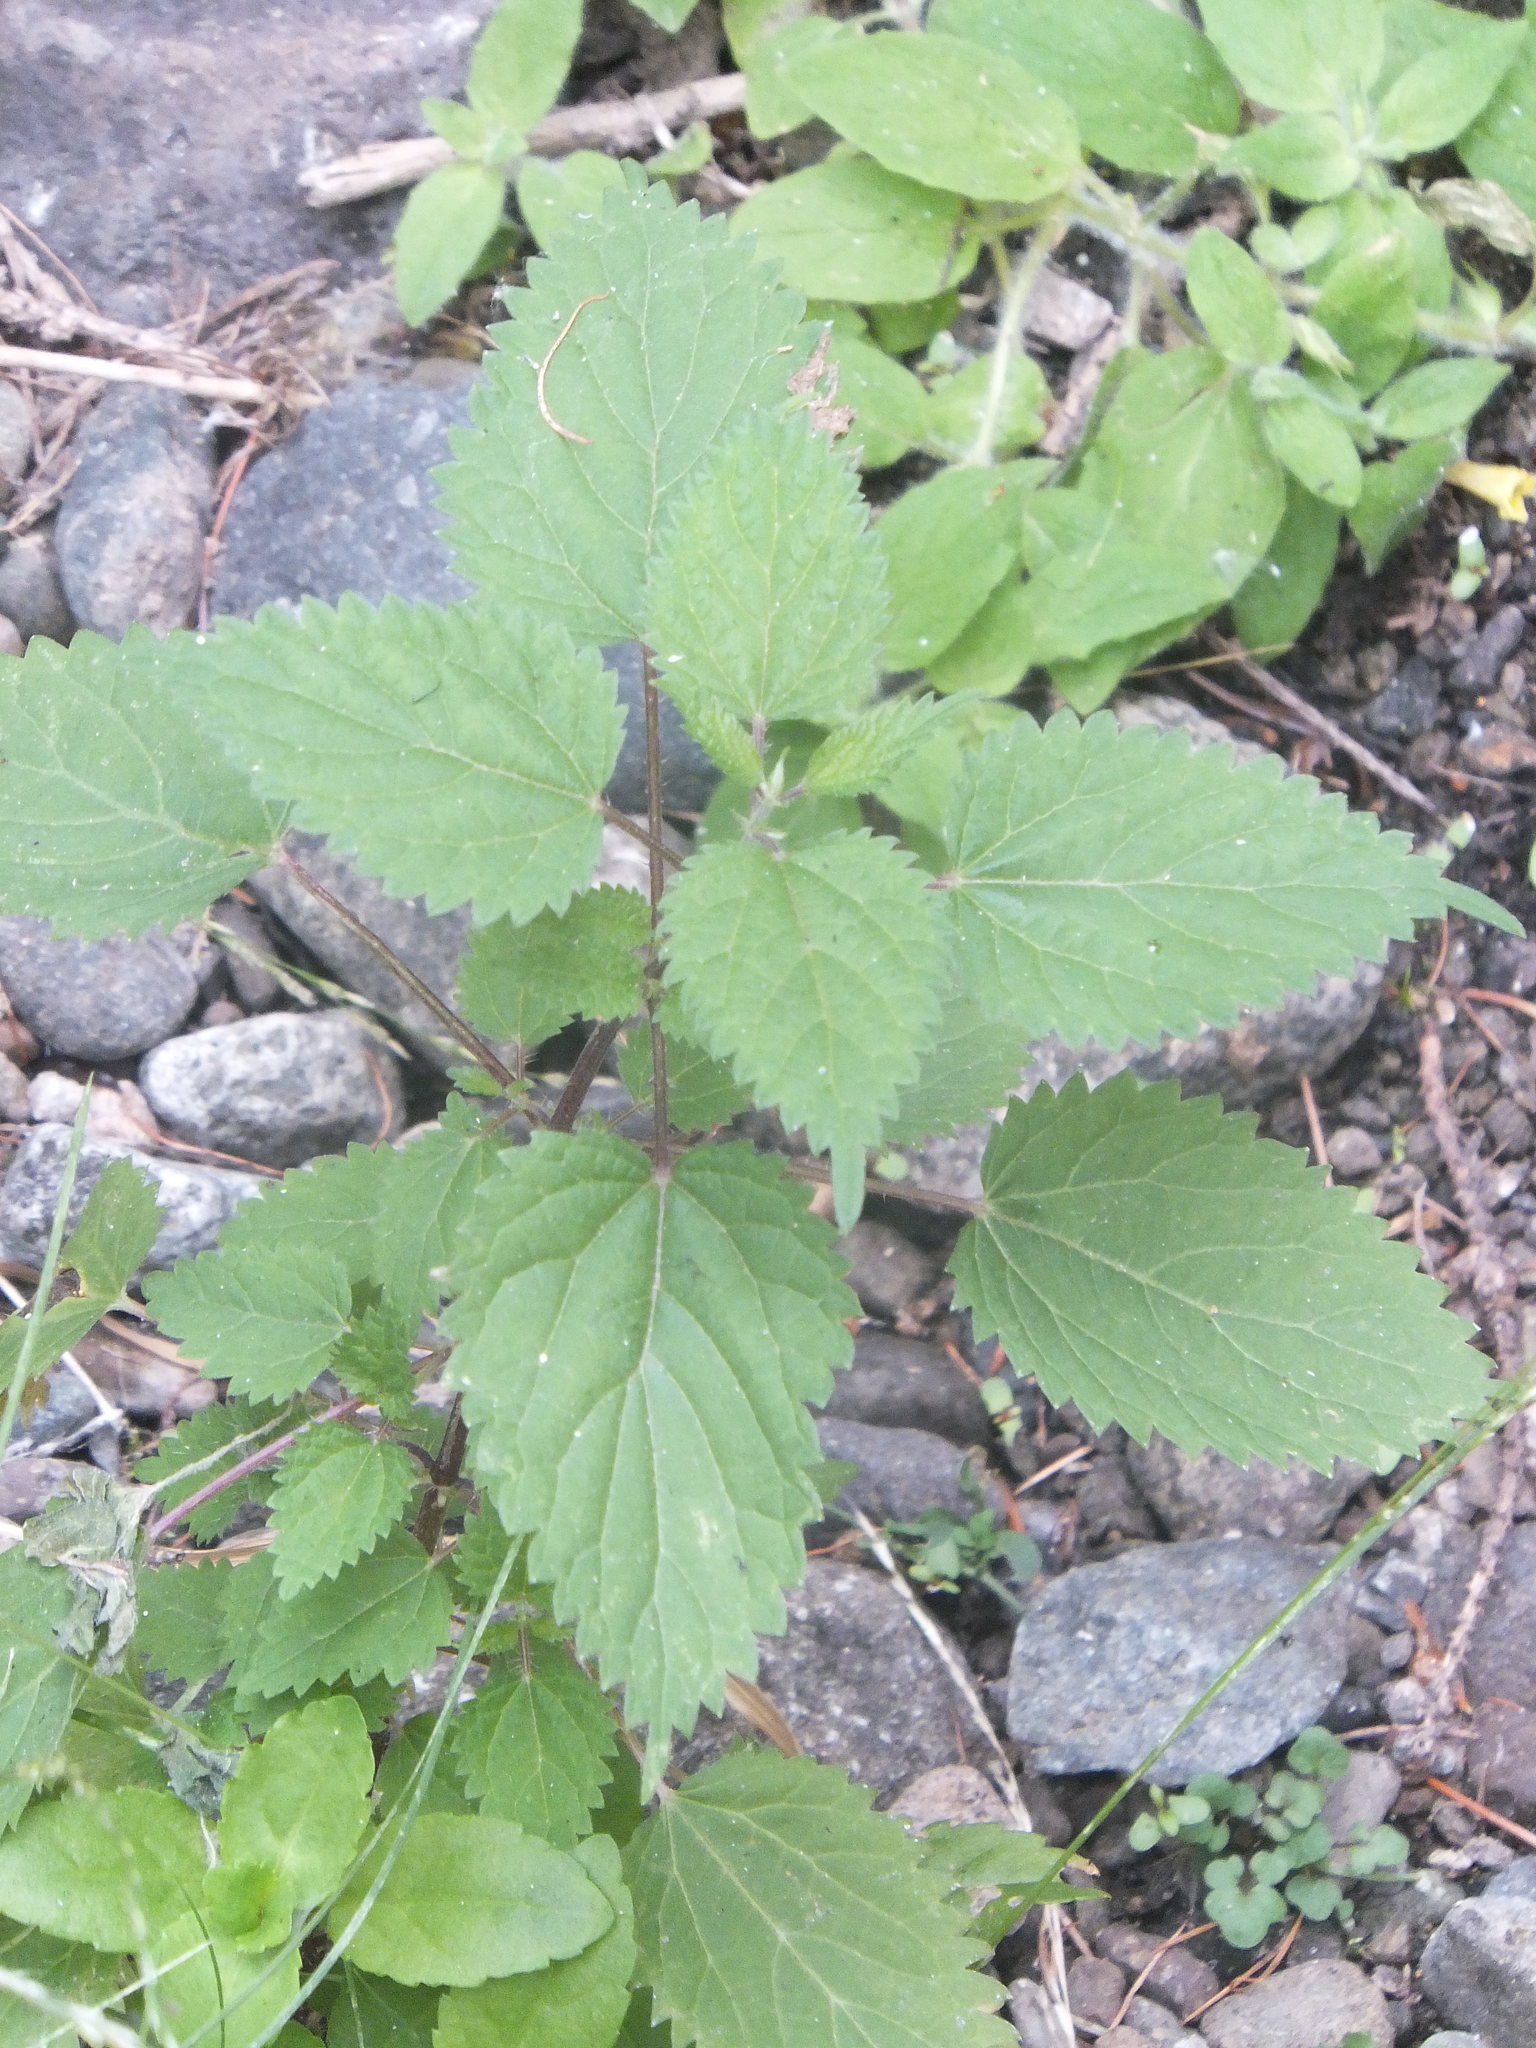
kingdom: Plantae
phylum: Tracheophyta
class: Magnoliopsida
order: Rosales
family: Urticaceae
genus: Urtica
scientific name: Urtica gracilis
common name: Slender stinging nettle
